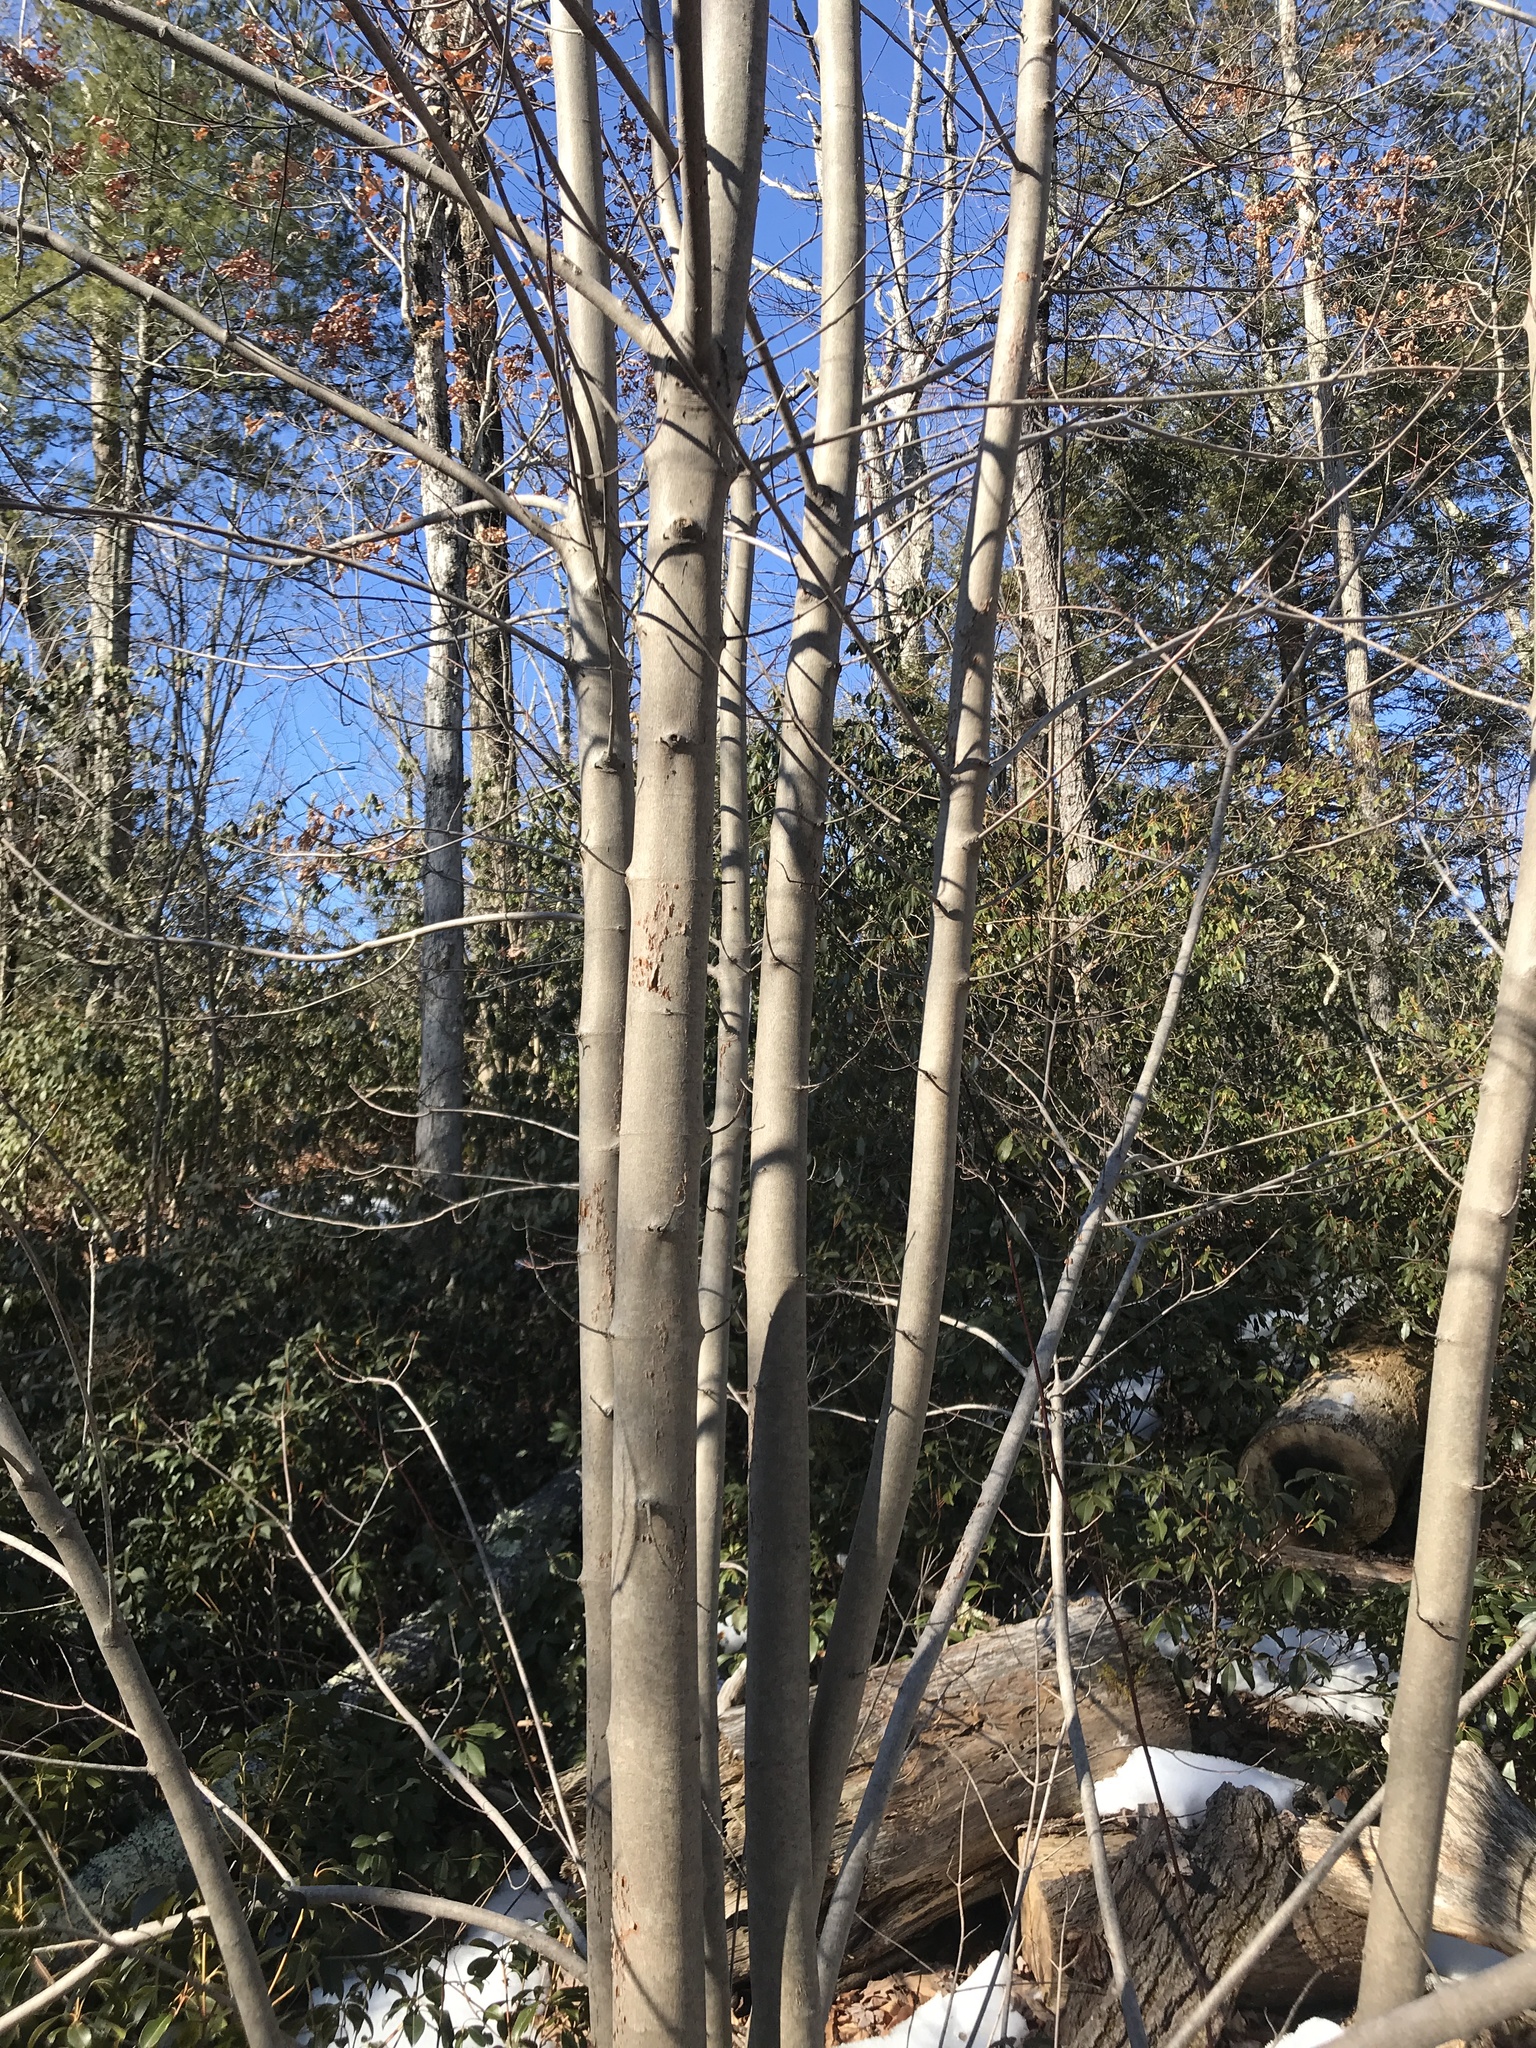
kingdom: Plantae
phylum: Tracheophyta
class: Magnoliopsida
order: Sapindales
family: Sapindaceae
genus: Acer
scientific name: Acer rubrum
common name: Red maple
